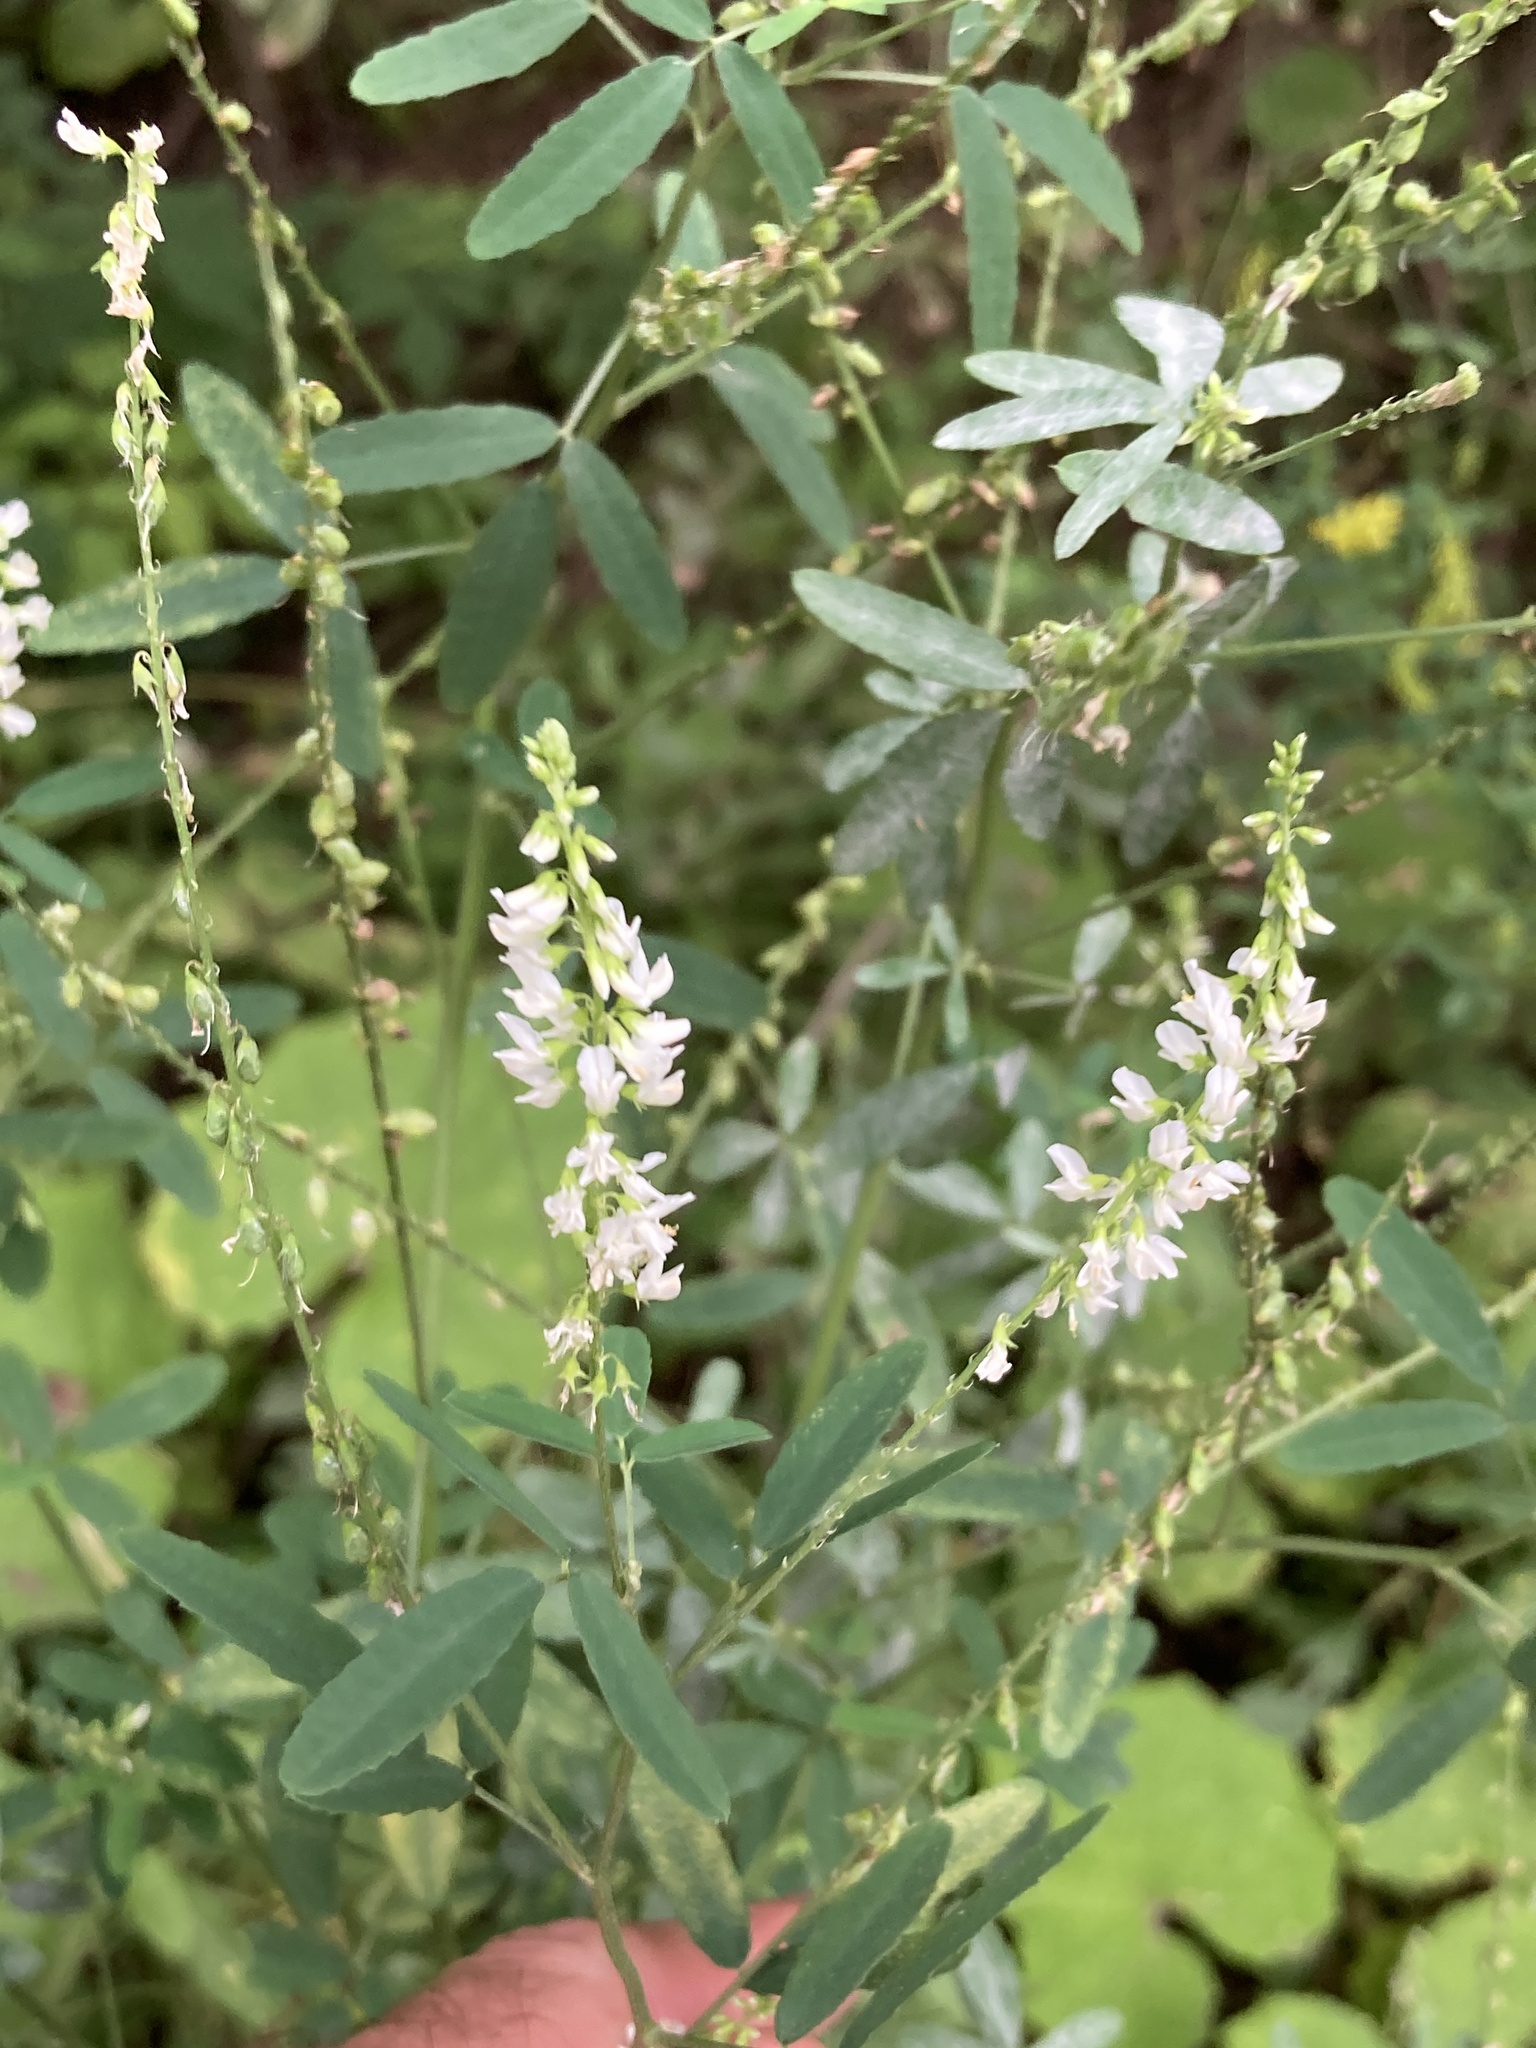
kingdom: Plantae
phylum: Tracheophyta
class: Magnoliopsida
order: Fabales
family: Fabaceae
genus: Melilotus
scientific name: Melilotus albus
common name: White melilot
